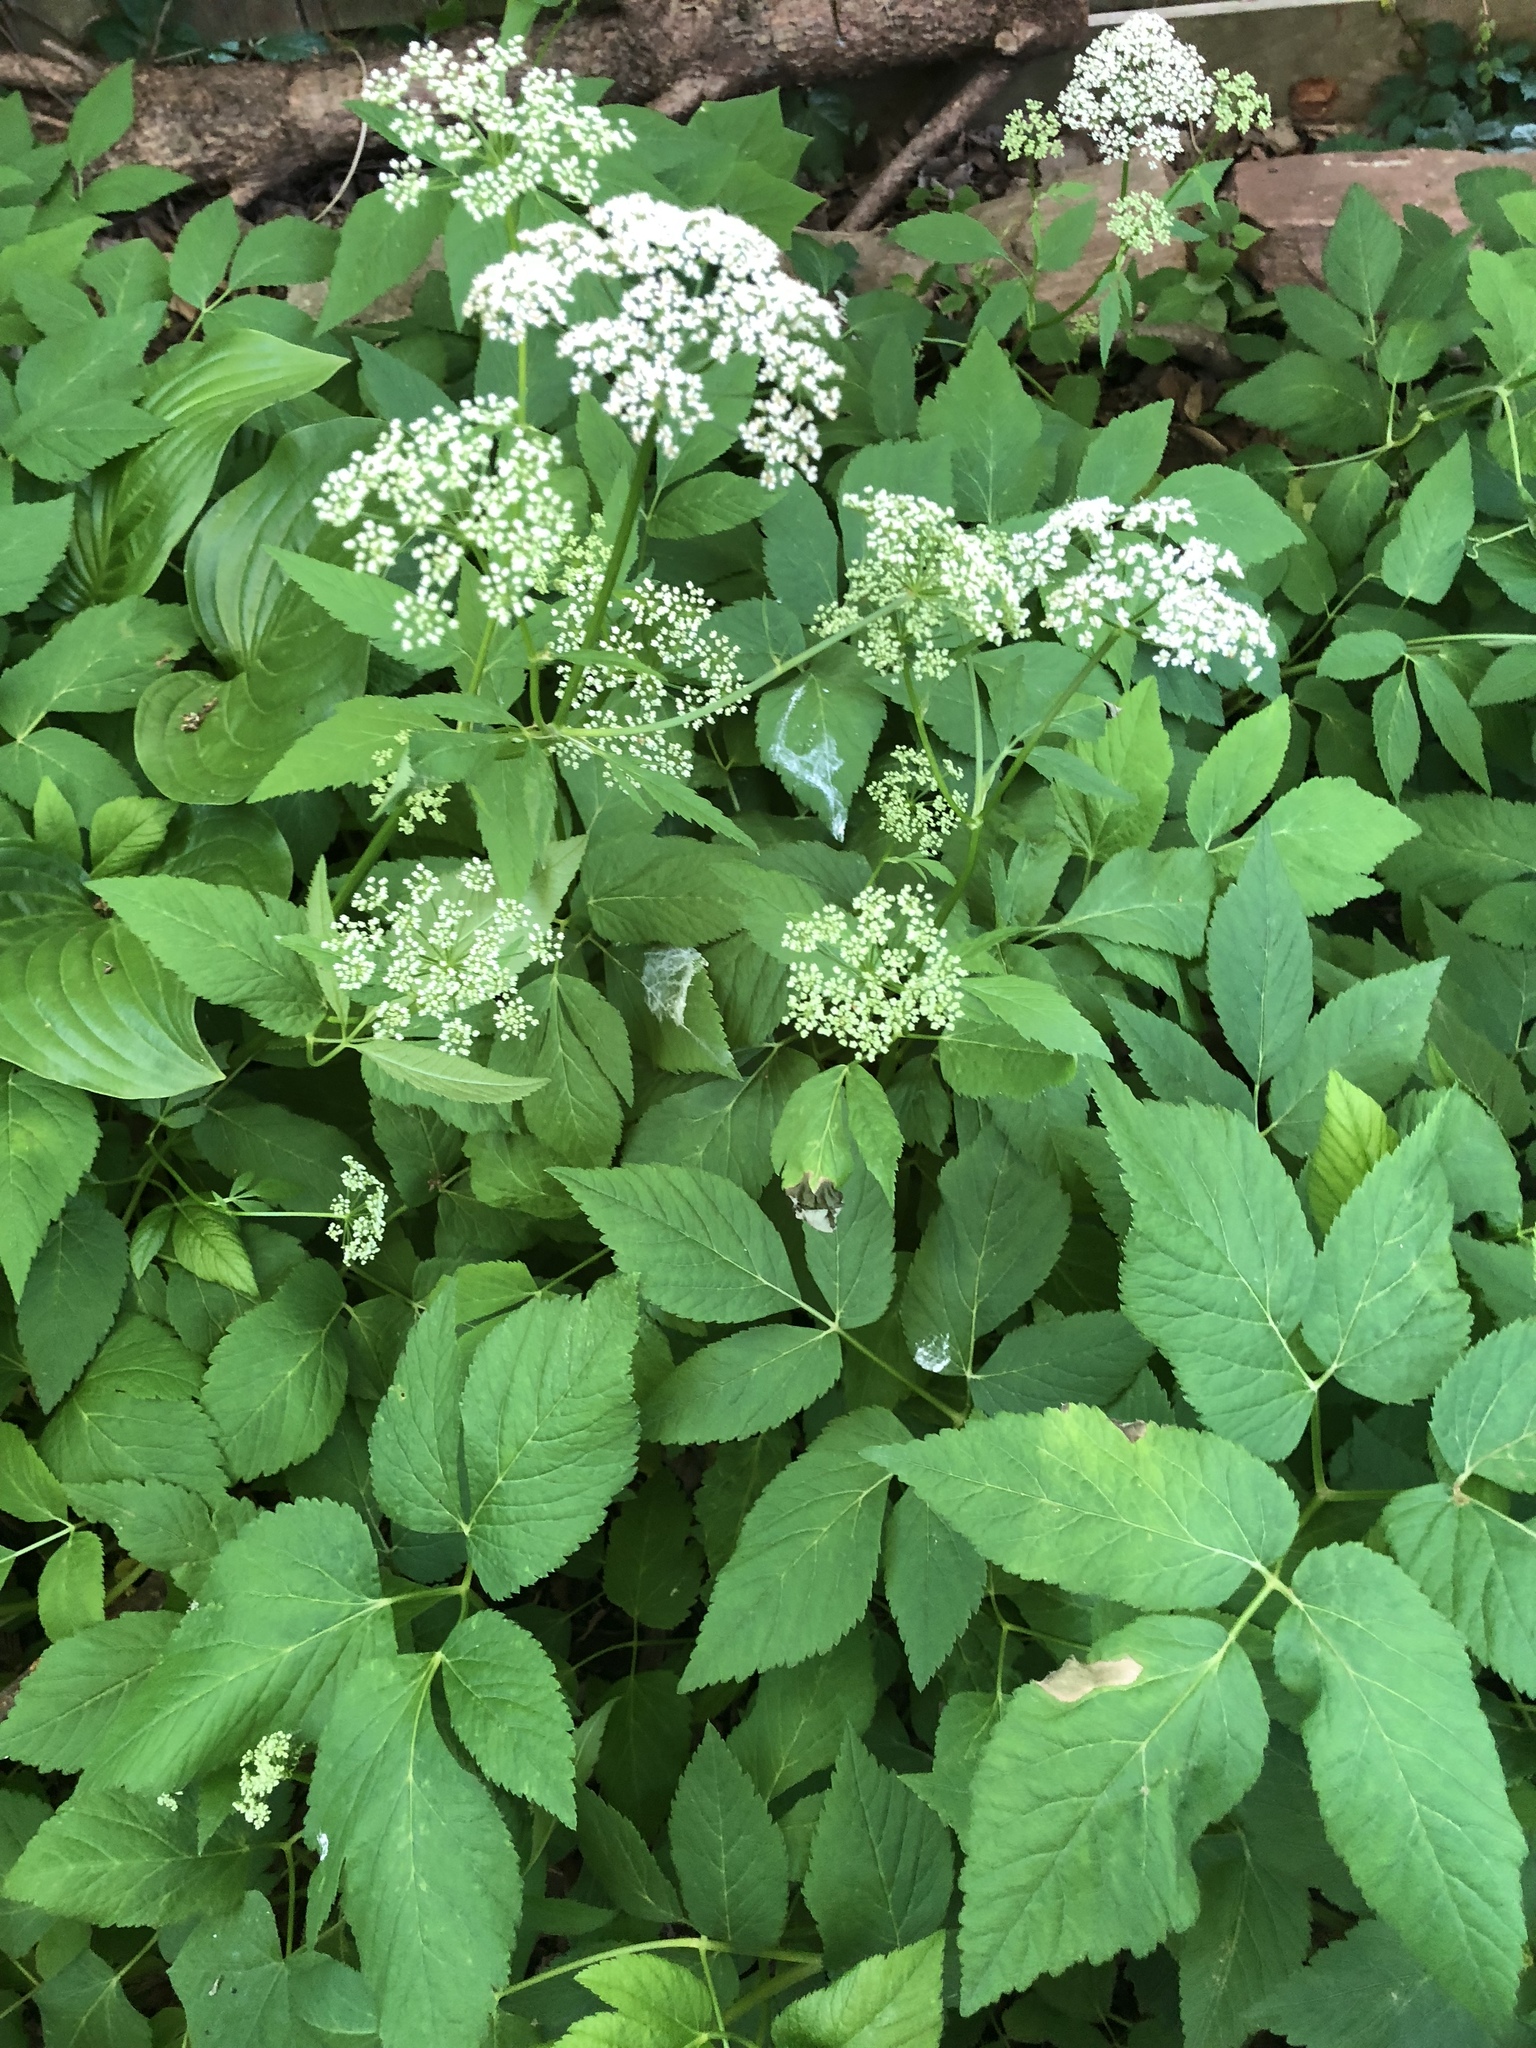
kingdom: Plantae
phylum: Tracheophyta
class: Magnoliopsida
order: Apiales
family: Apiaceae
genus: Aegopodium
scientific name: Aegopodium podagraria
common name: Ground-elder
